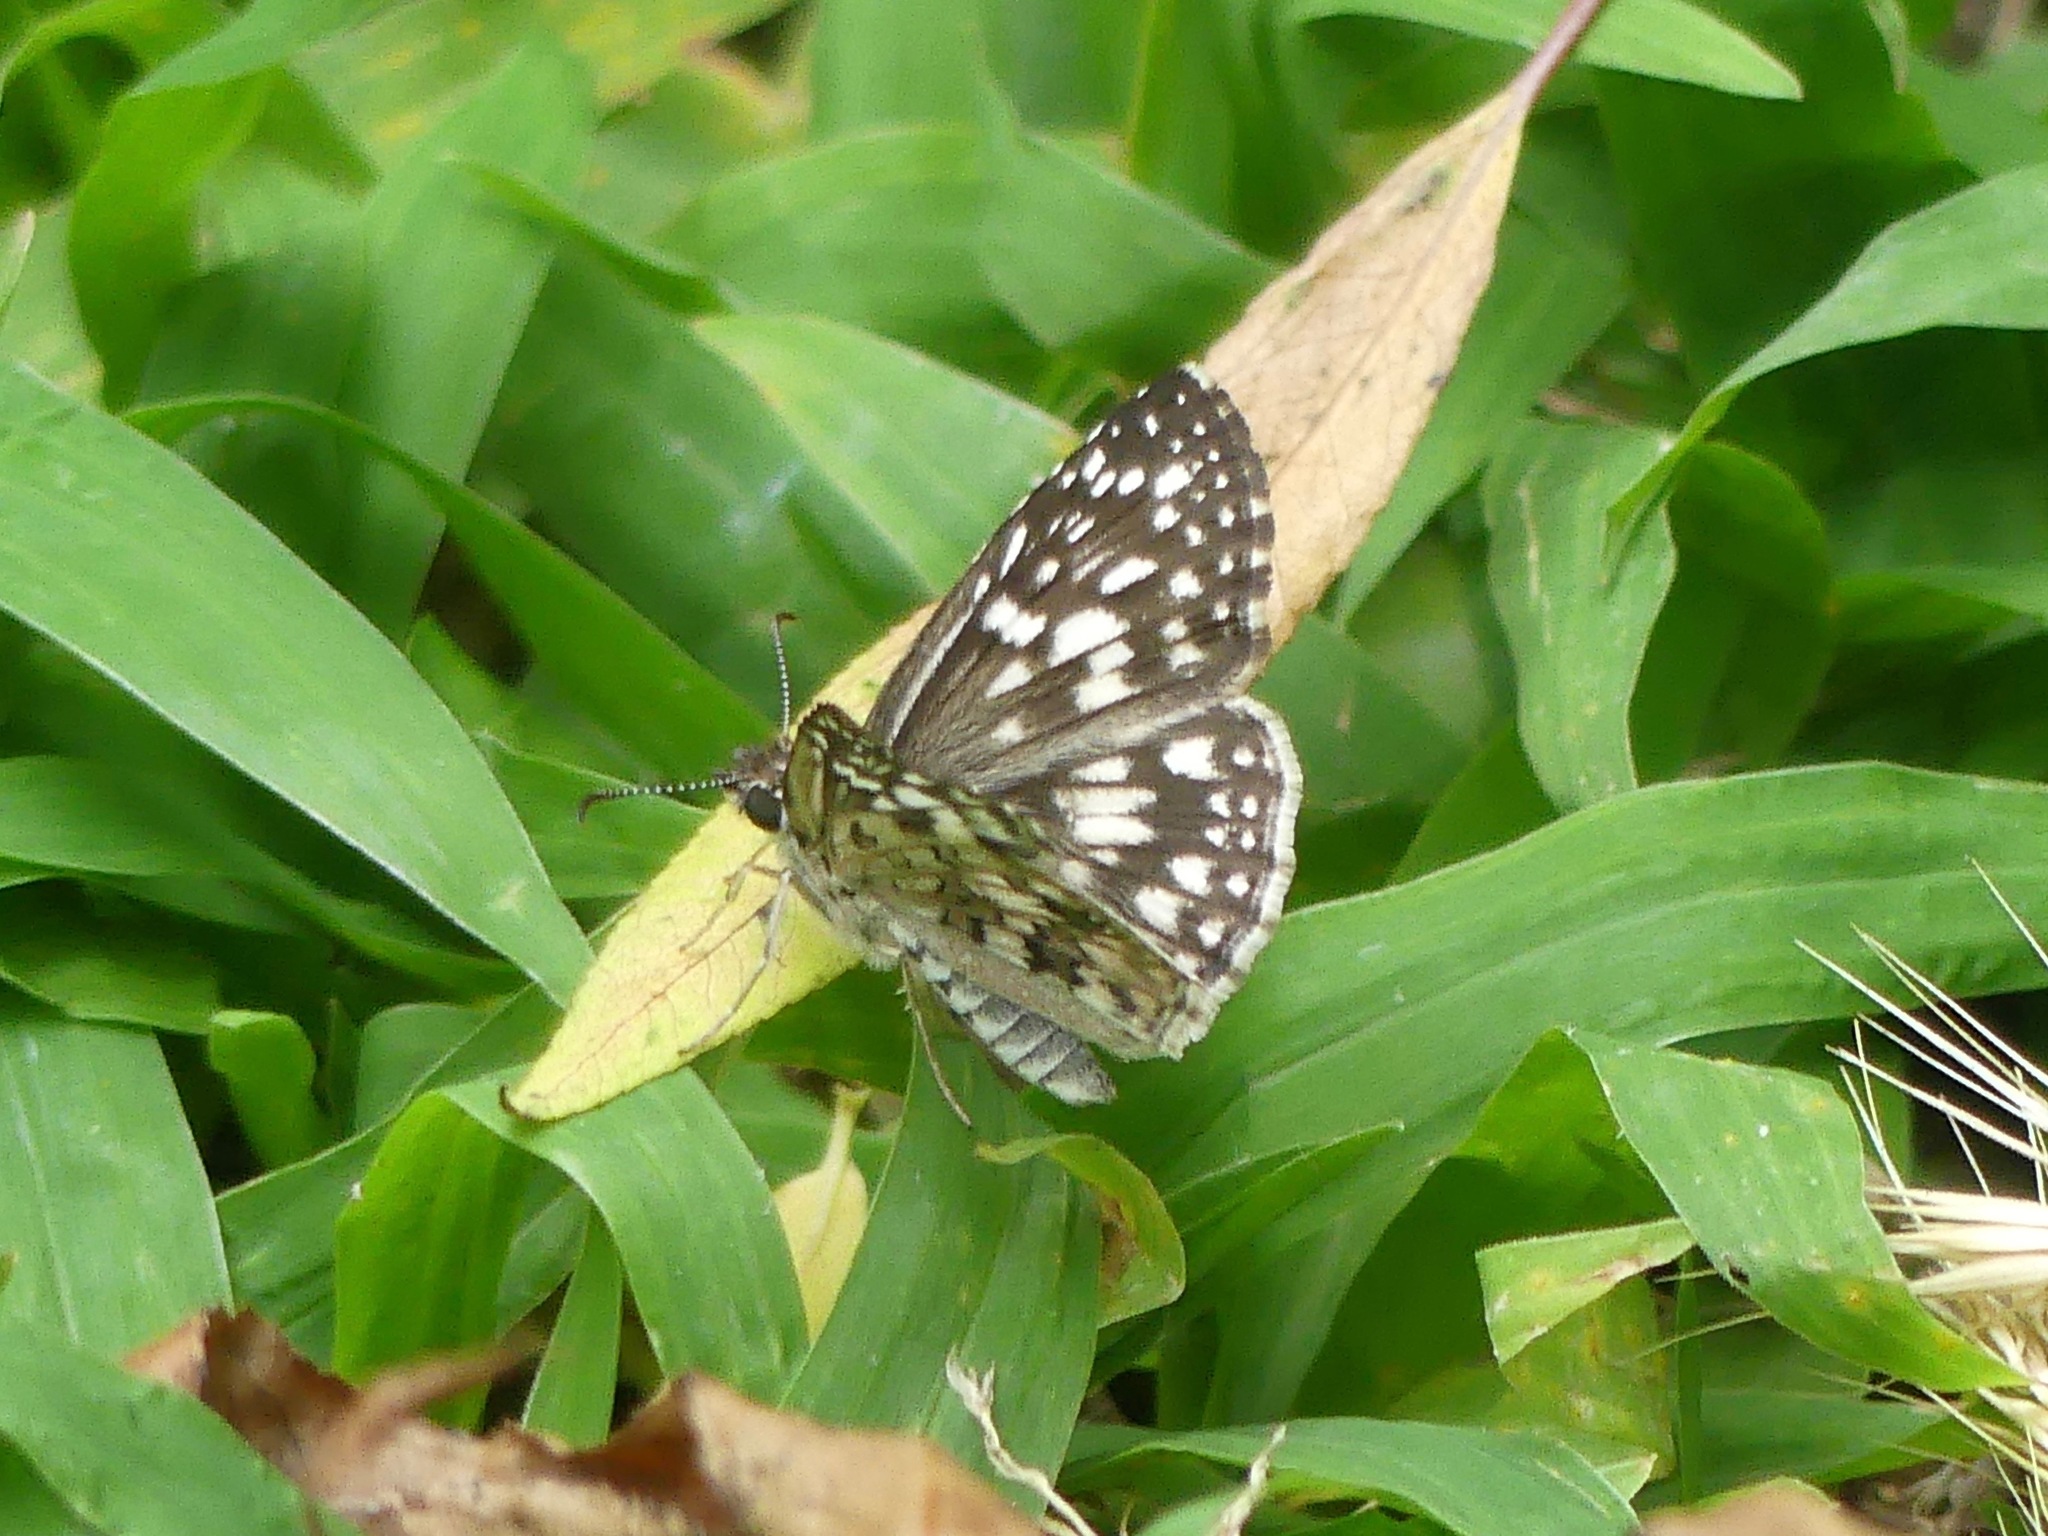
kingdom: Animalia
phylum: Arthropoda
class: Insecta
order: Lepidoptera
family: Hesperiidae
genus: Pyrgus
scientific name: Pyrgus oileus
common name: Tropical checkered-skipper
